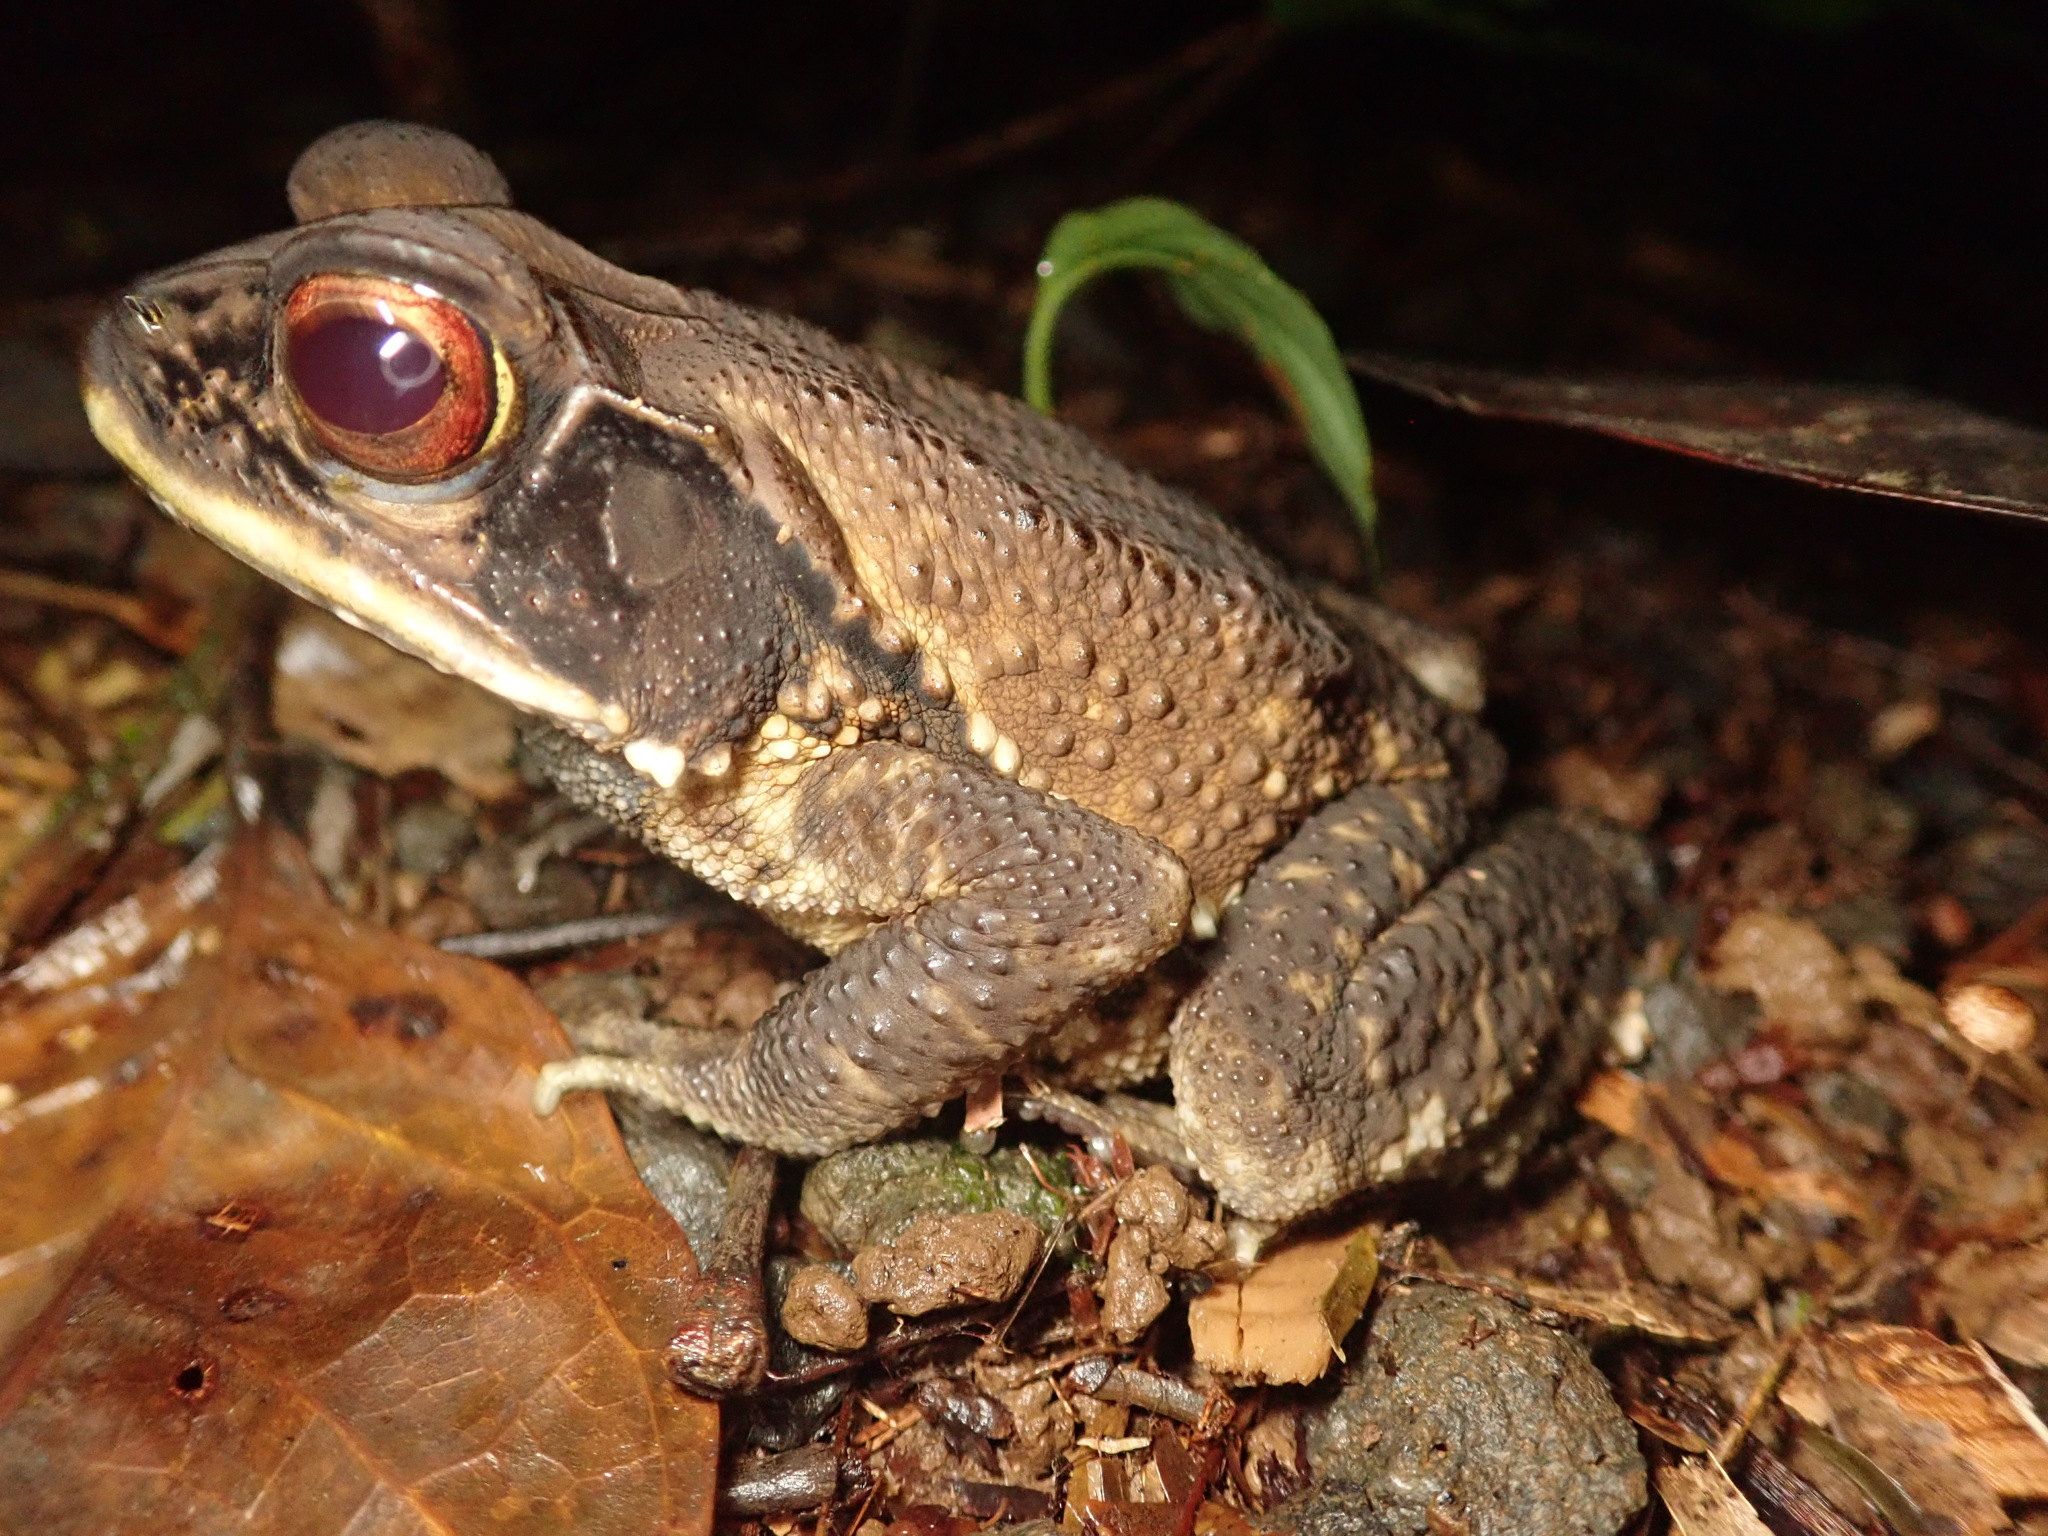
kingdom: Animalia
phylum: Chordata
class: Amphibia
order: Anura
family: Bufonidae
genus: Incilius
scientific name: Incilius melanochlorus
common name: Dark green toad
